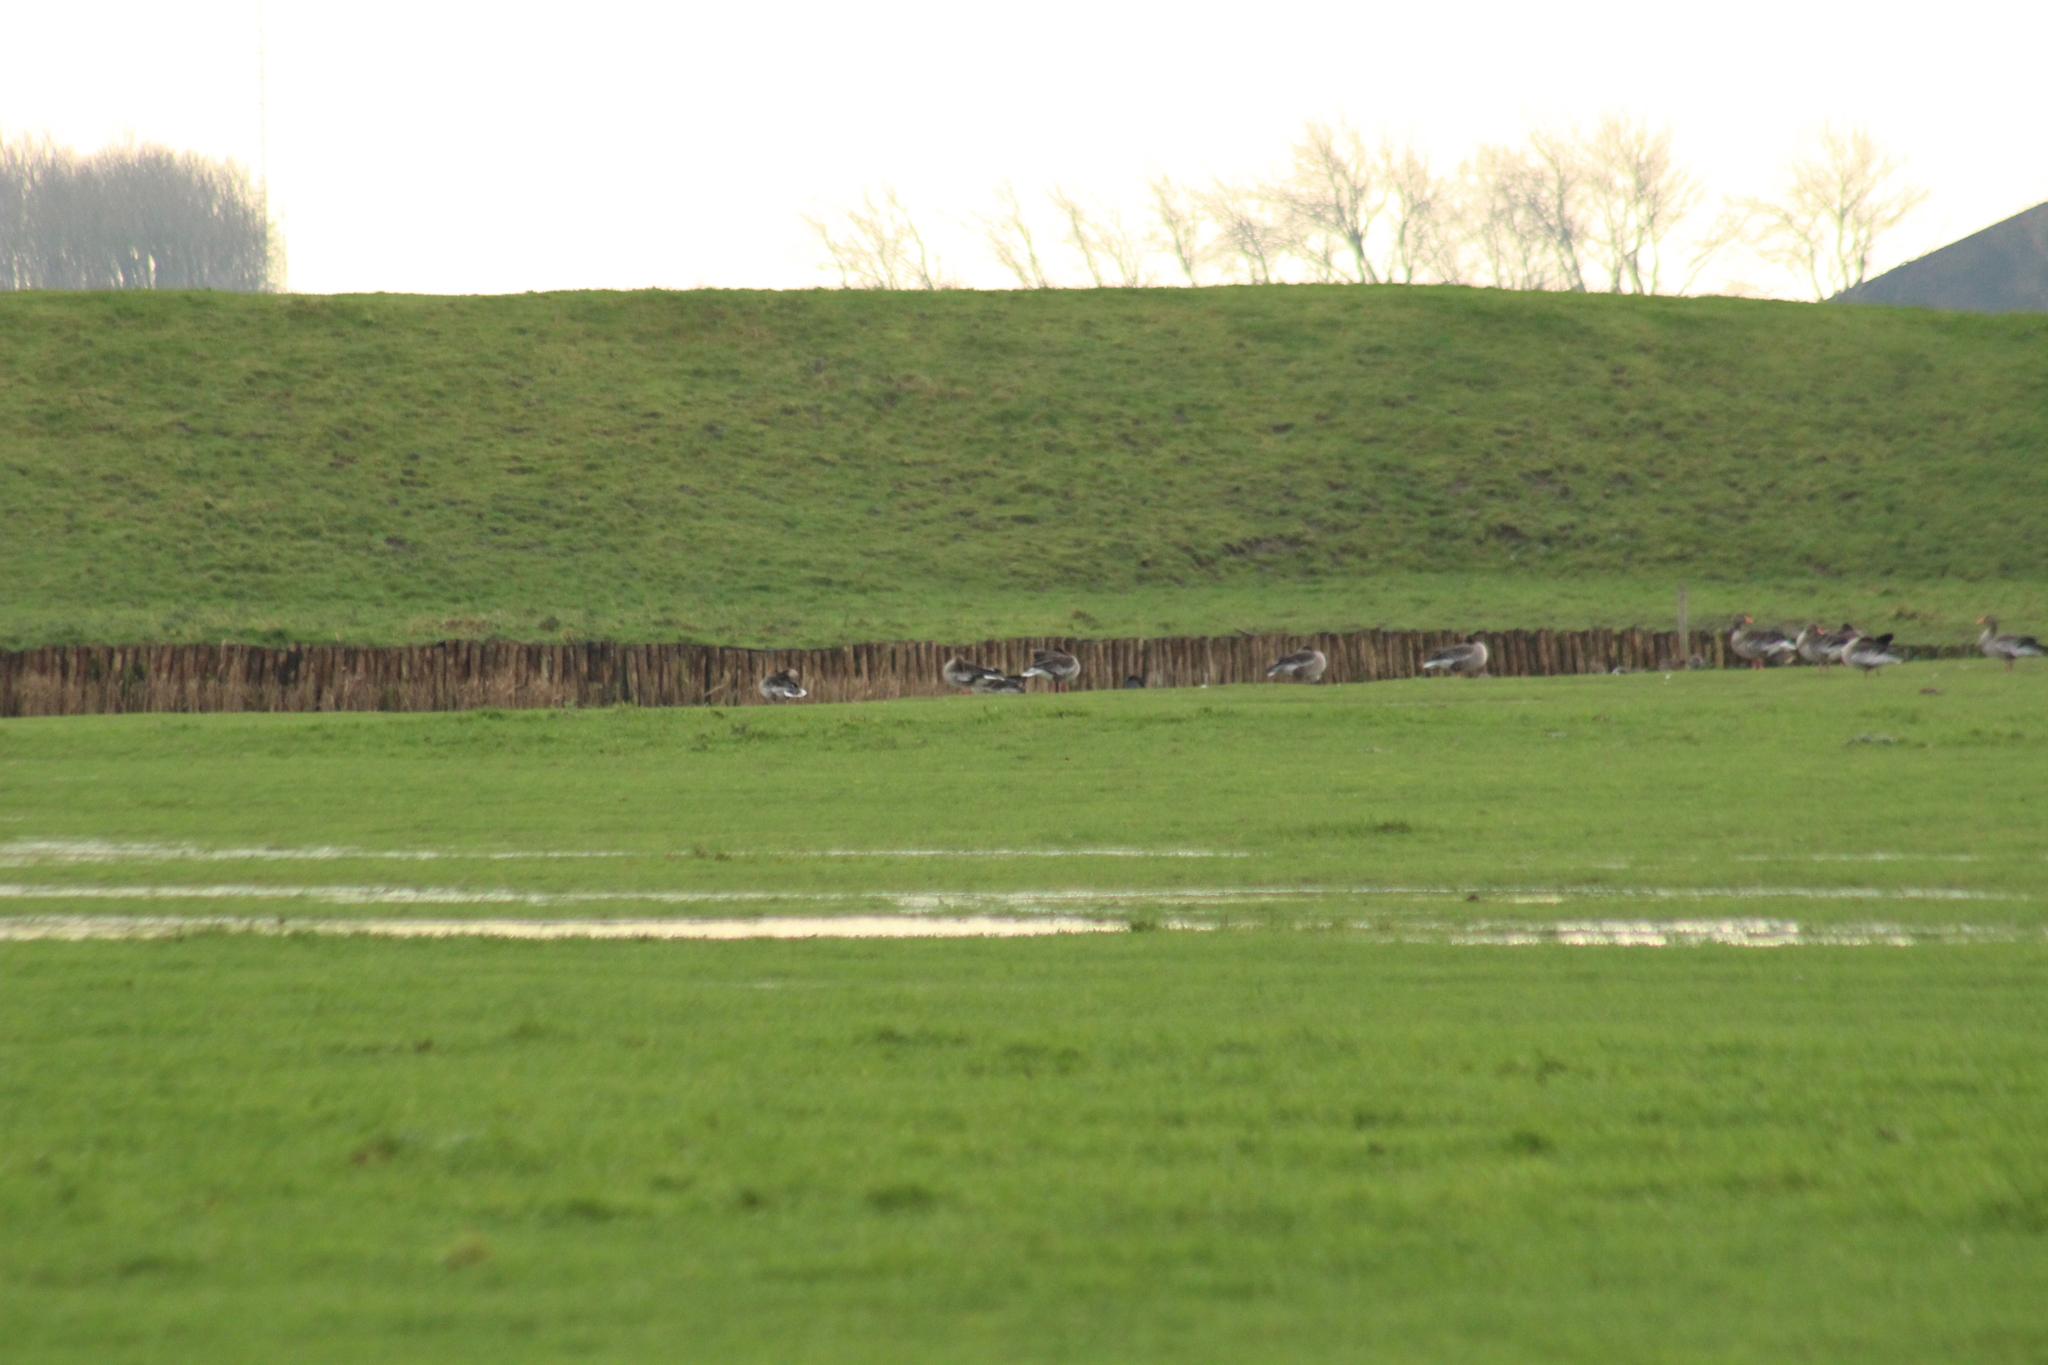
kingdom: Animalia
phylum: Chordata
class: Aves
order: Anseriformes
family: Anatidae
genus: Anser
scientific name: Anser anser
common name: Greylag goose
